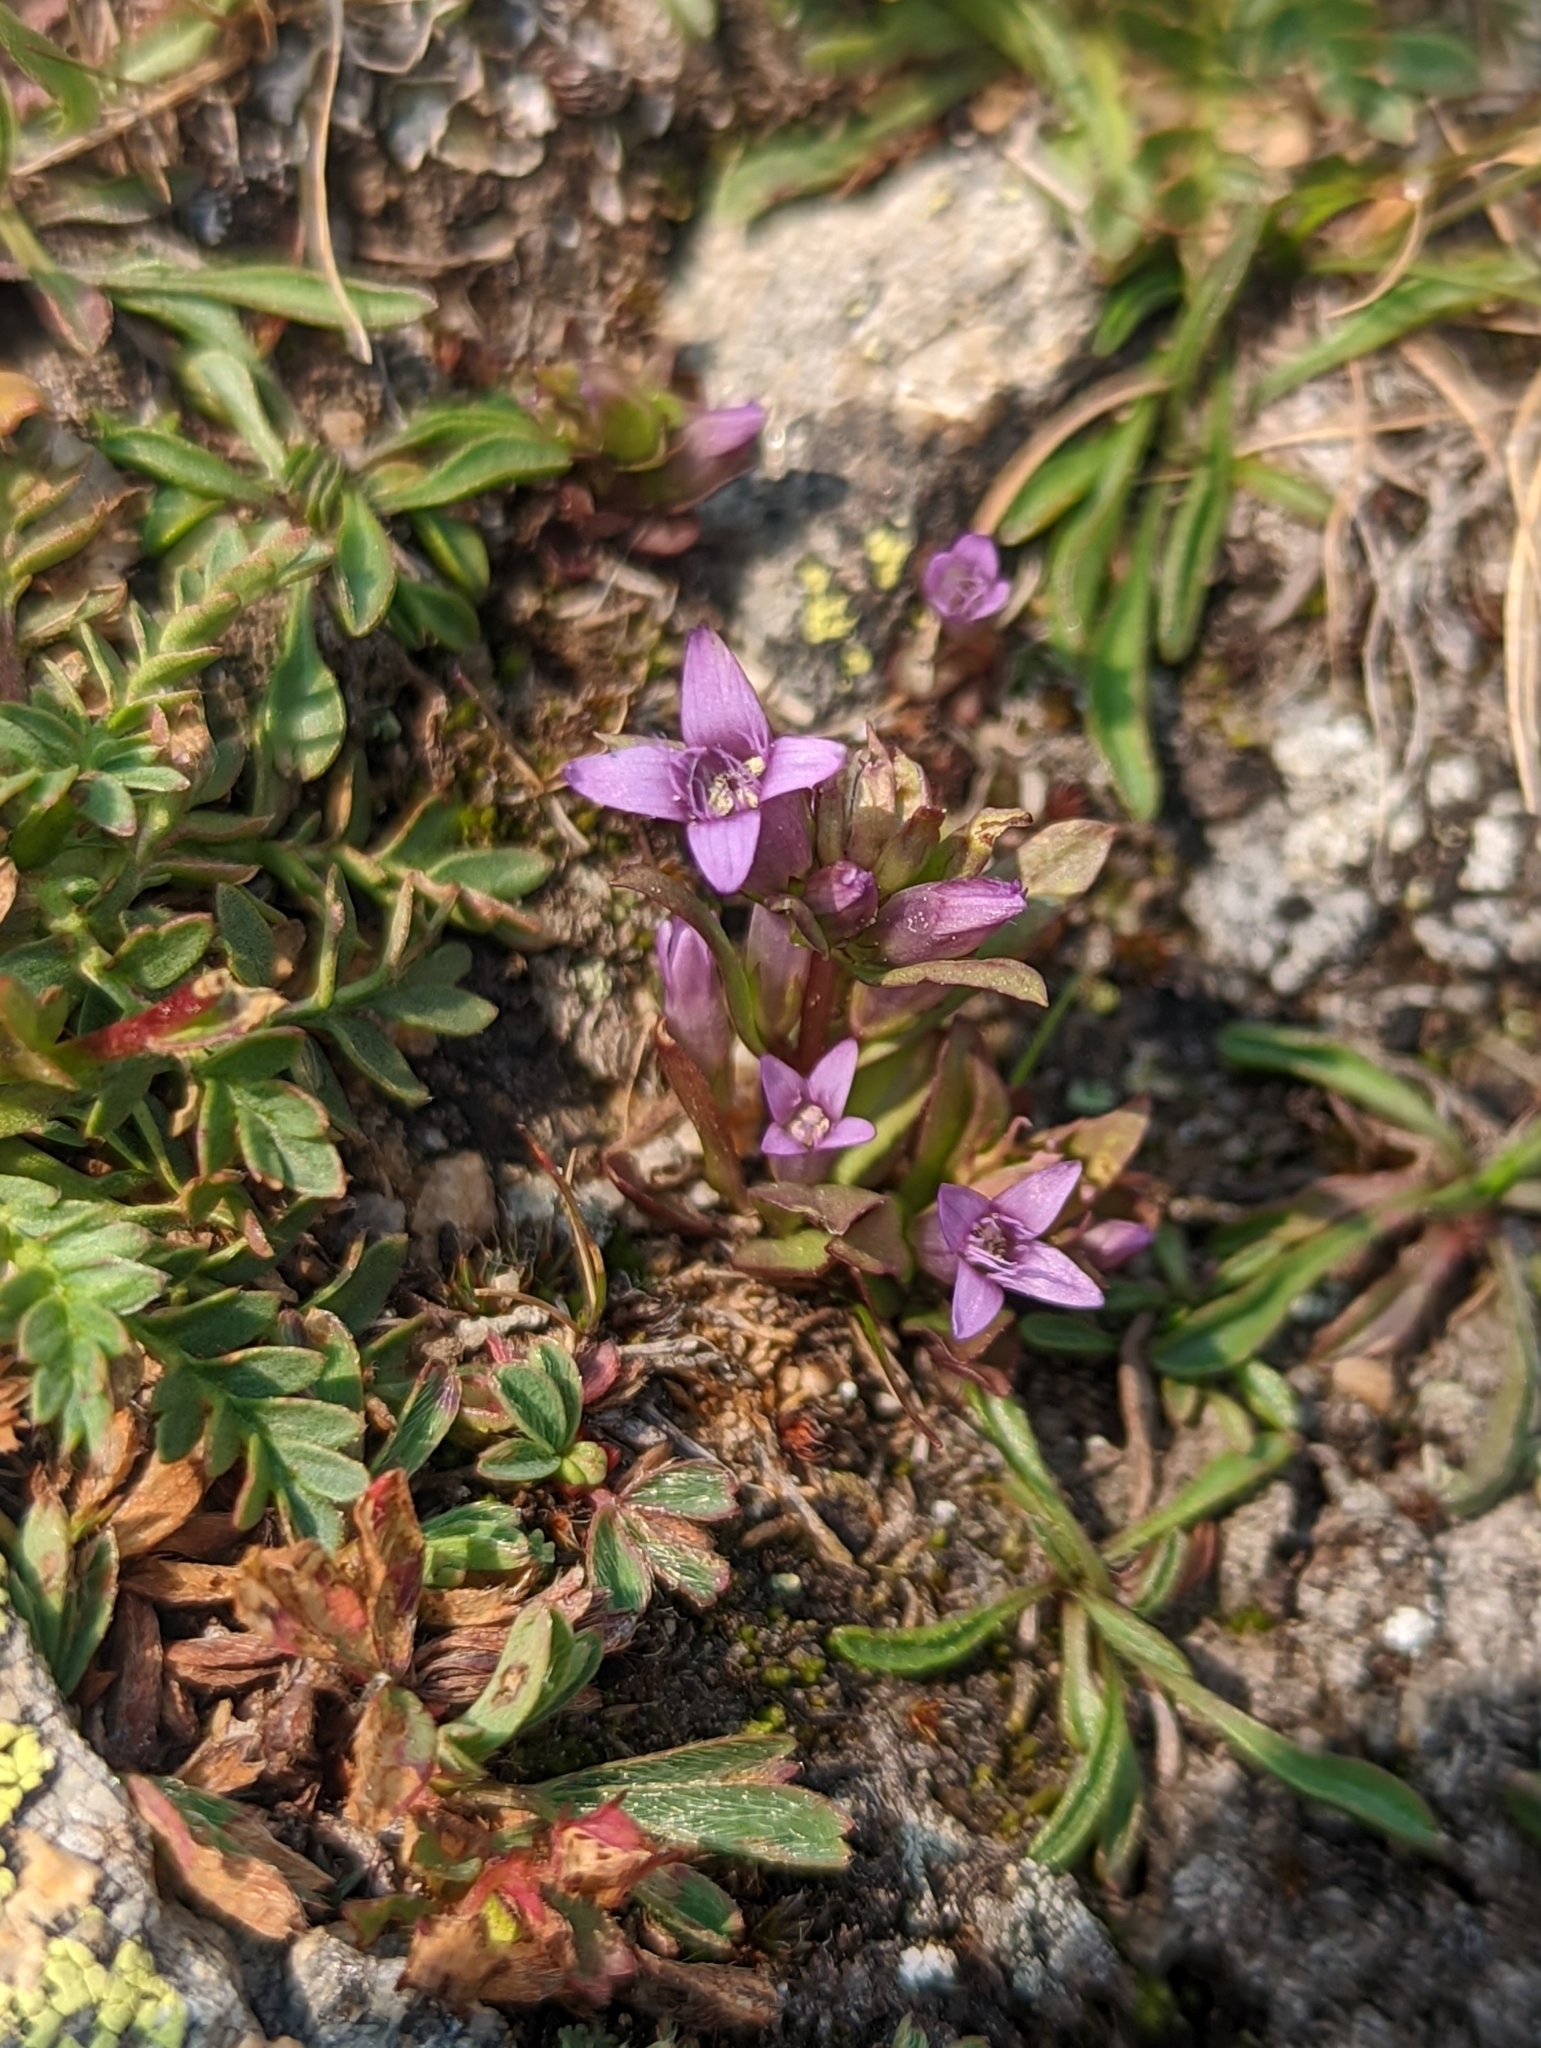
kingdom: Plantae
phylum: Tracheophyta
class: Magnoliopsida
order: Gentianales
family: Gentianaceae
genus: Gentianella
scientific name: Gentianella amarella
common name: Autumn gentian
